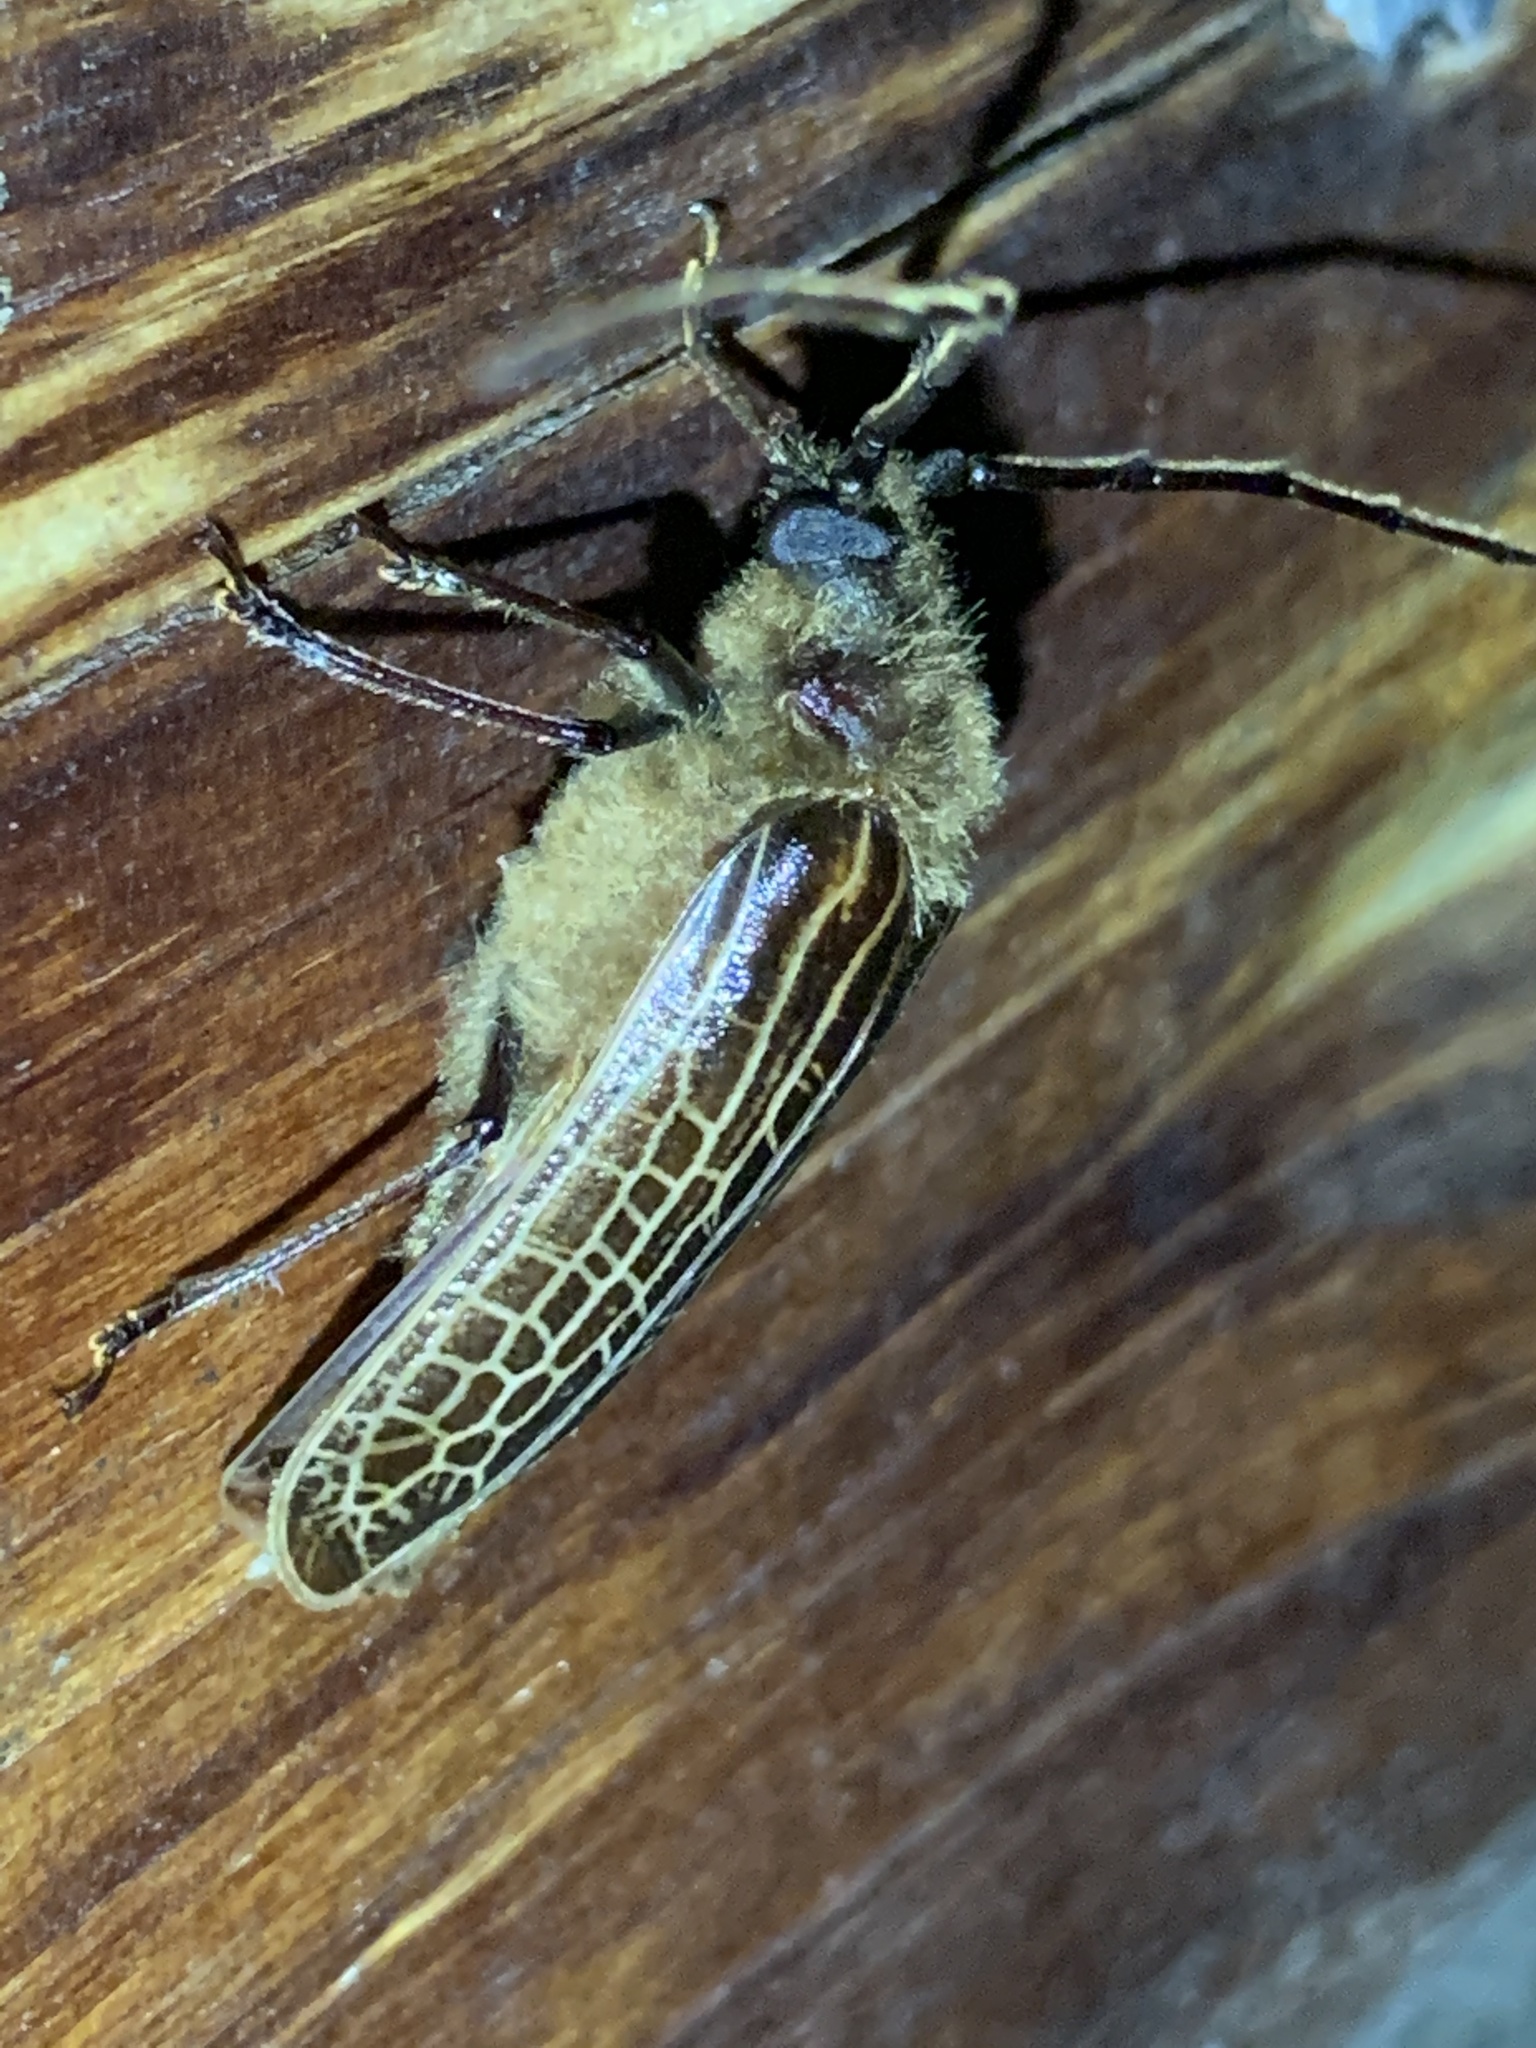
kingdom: Animalia
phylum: Arthropoda
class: Insecta
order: Coleoptera
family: Cerambycidae
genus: Prionoplus
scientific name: Prionoplus reticularis
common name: Huhu beetle
